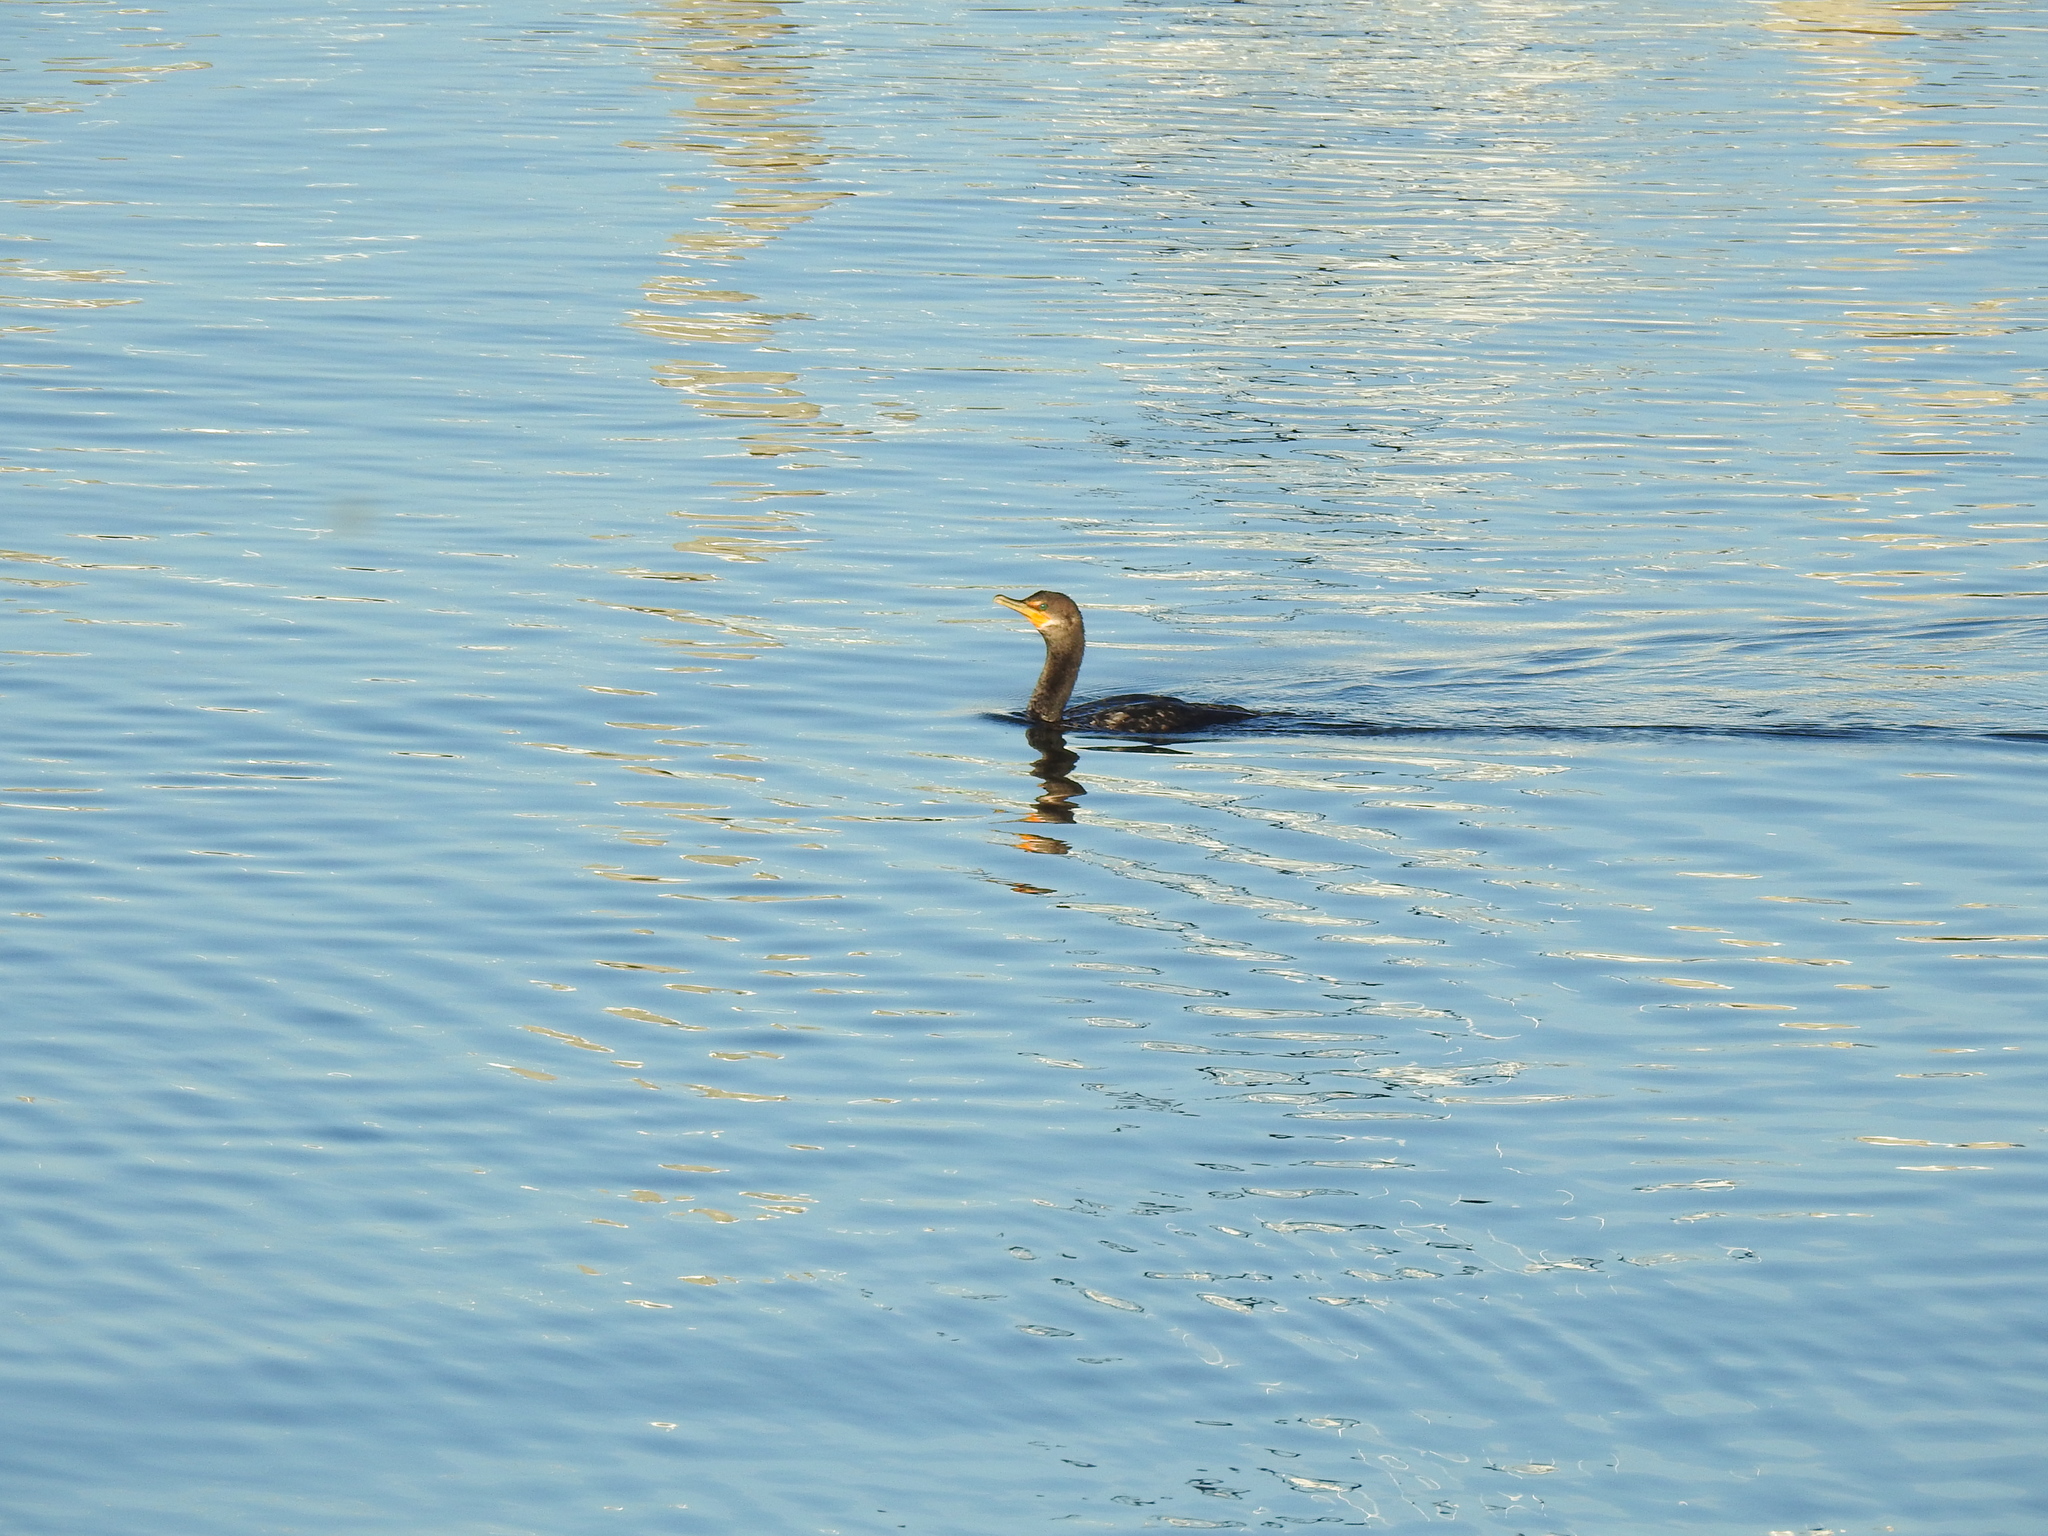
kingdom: Animalia
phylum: Chordata
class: Aves
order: Suliformes
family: Phalacrocoracidae
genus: Phalacrocorax
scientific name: Phalacrocorax auritus
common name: Double-crested cormorant
